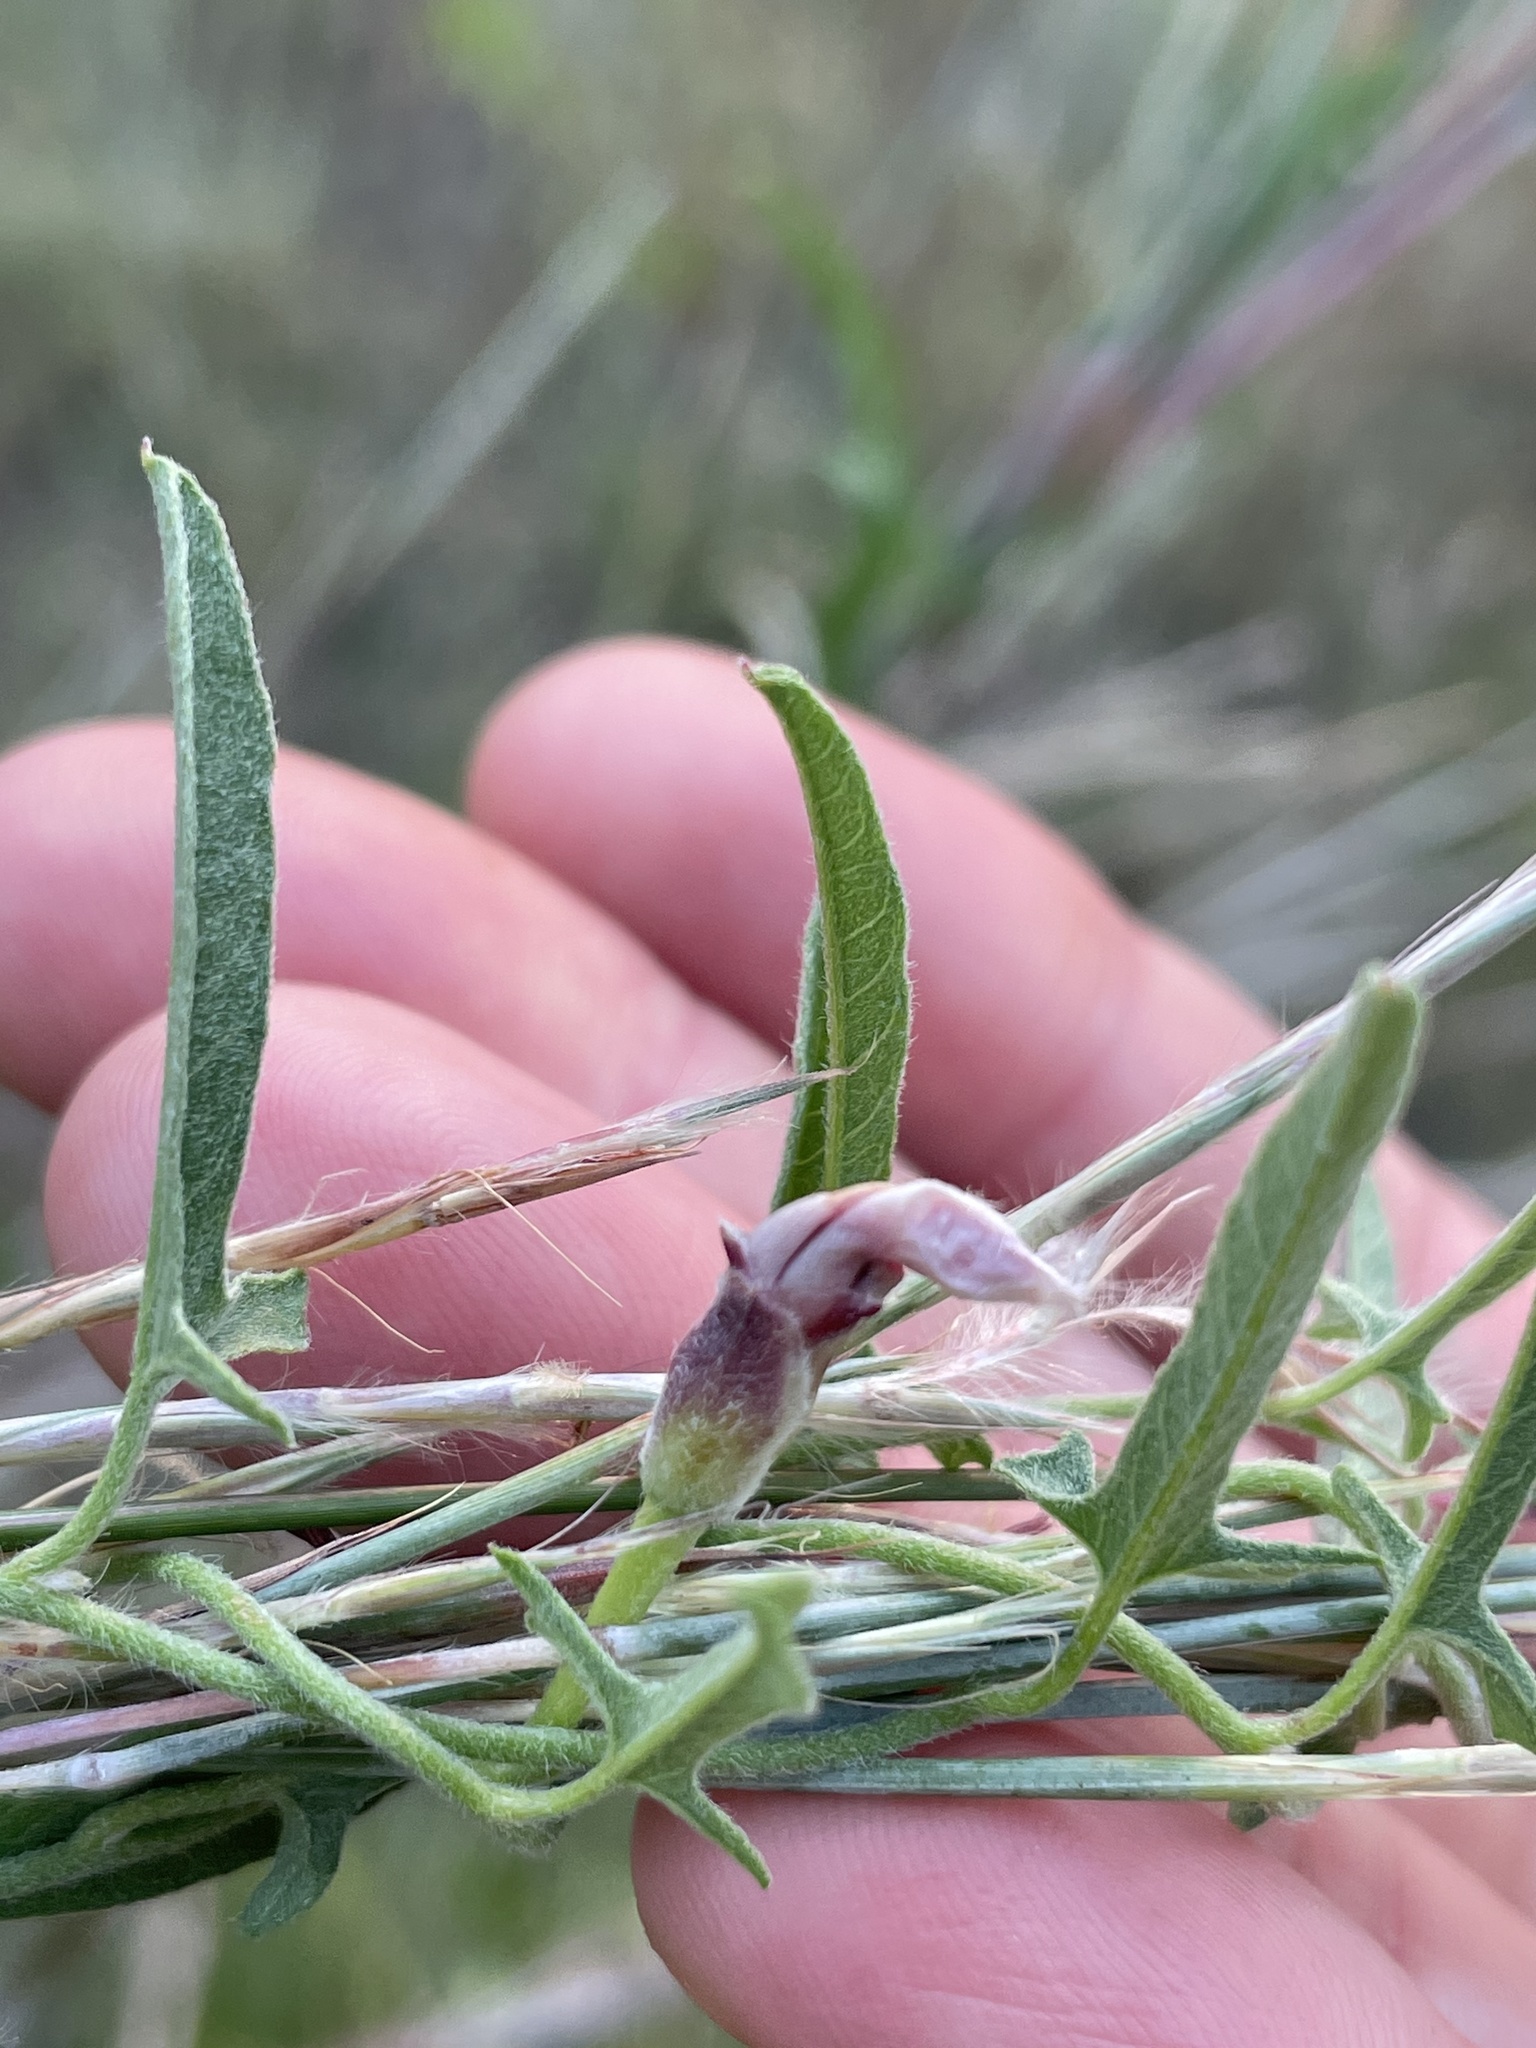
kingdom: Plantae
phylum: Tracheophyta
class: Magnoliopsida
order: Solanales
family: Convolvulaceae
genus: Convolvulus
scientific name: Convolvulus equitans
